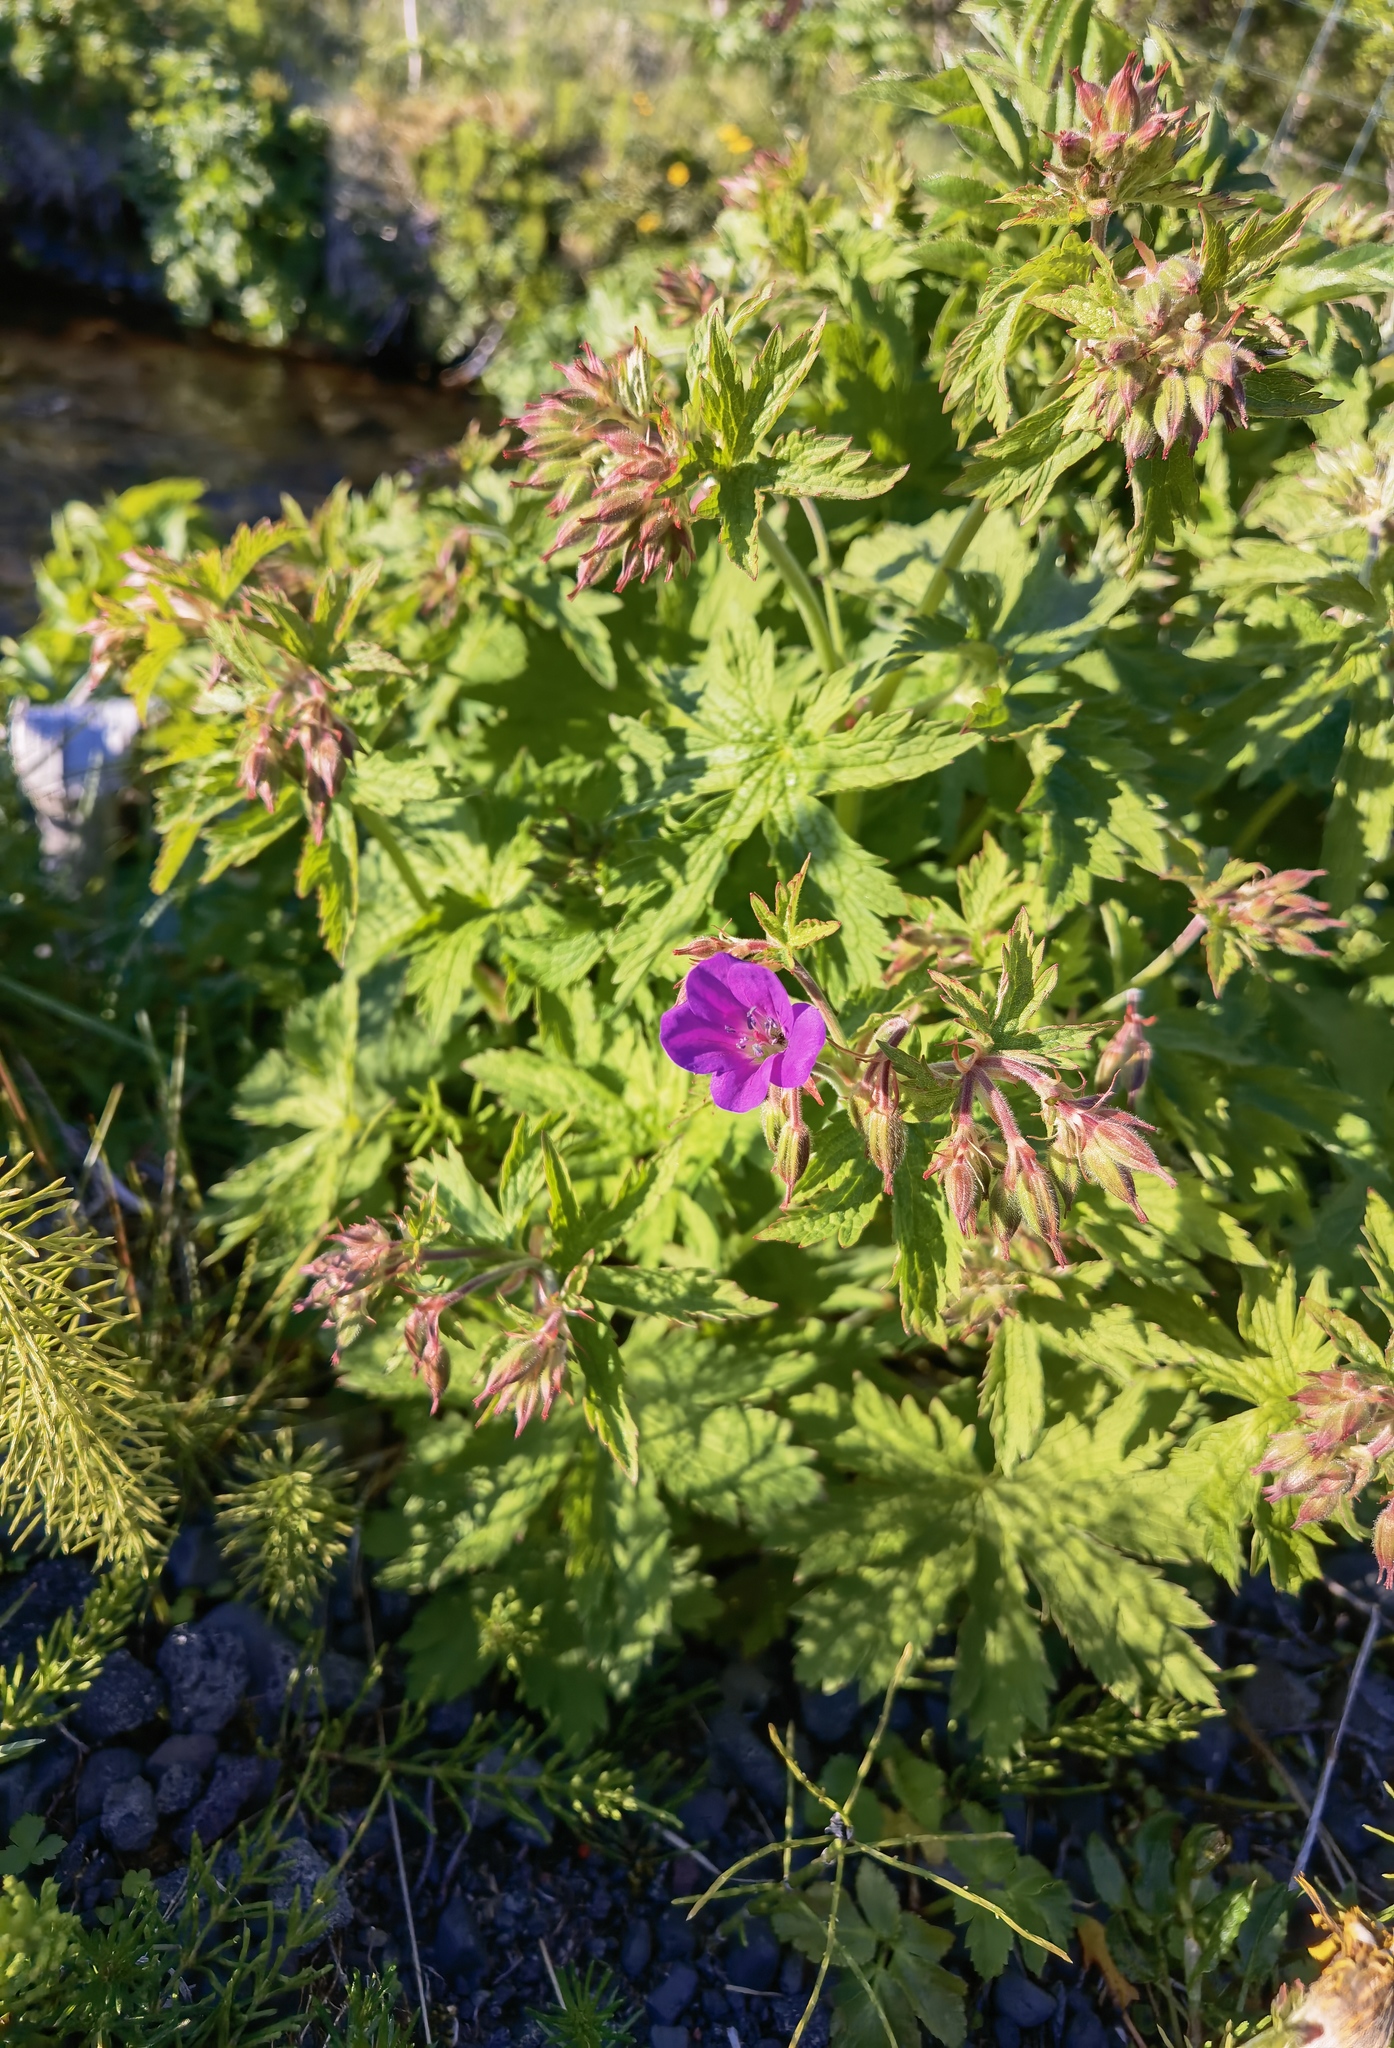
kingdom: Plantae
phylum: Tracheophyta
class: Magnoliopsida
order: Geraniales
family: Geraniaceae
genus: Geranium
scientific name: Geranium sylvaticum
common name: Wood crane's-bill
